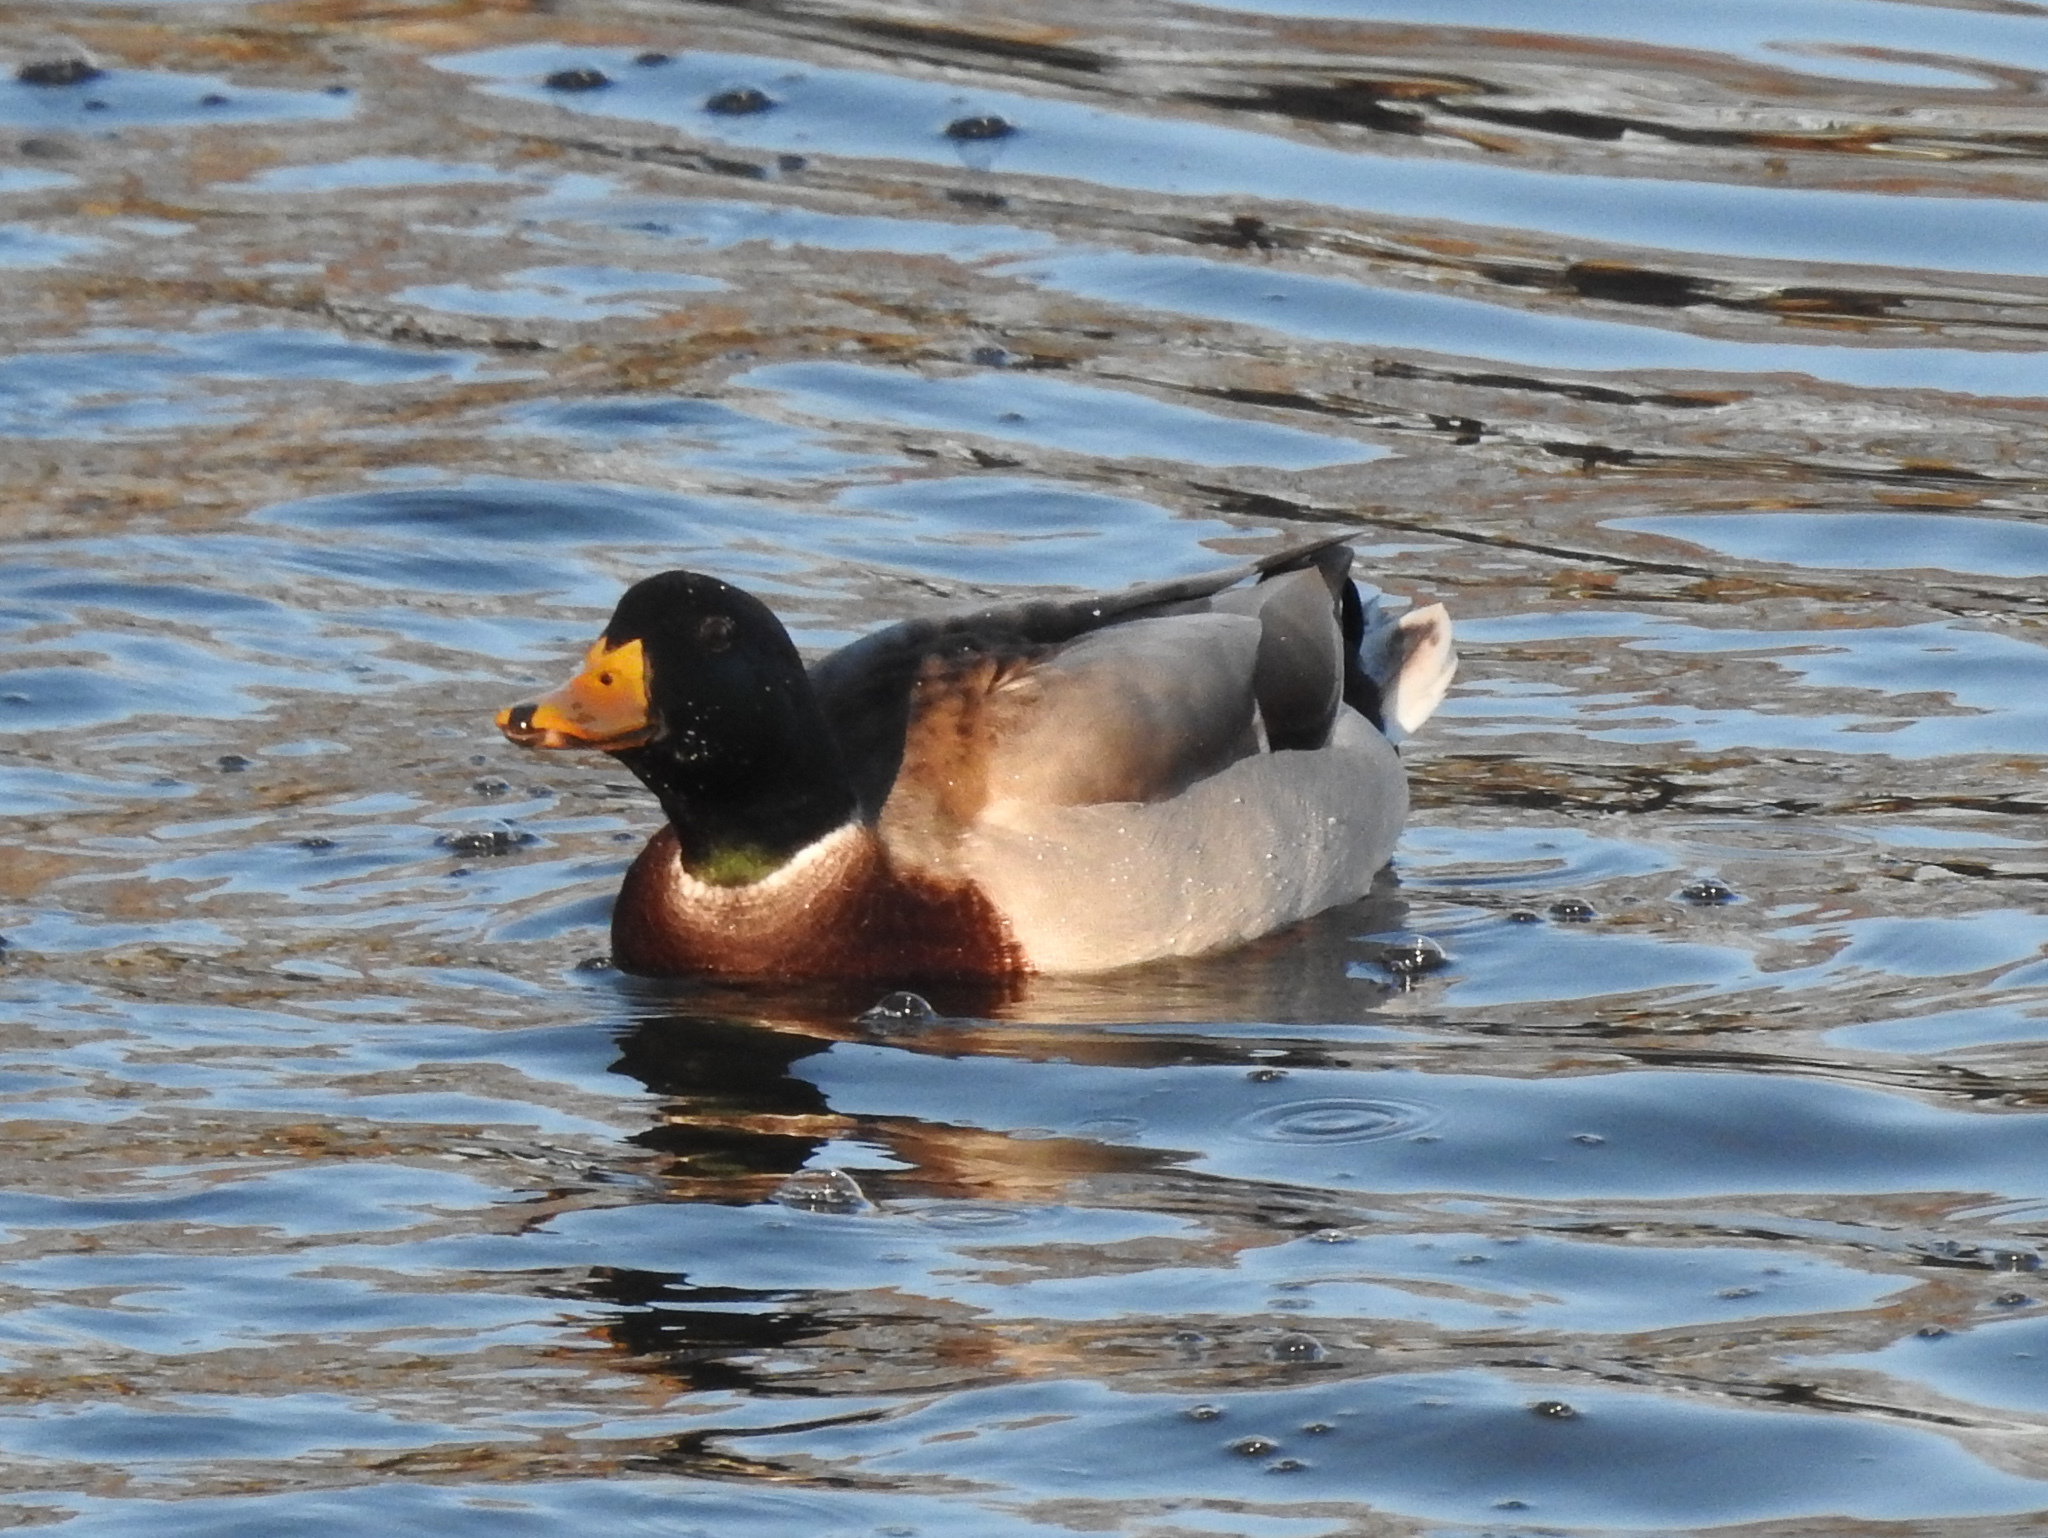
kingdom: Animalia
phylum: Chordata
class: Aves
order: Anseriformes
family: Anatidae
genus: Anas
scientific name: Anas platyrhynchos
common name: Mallard
